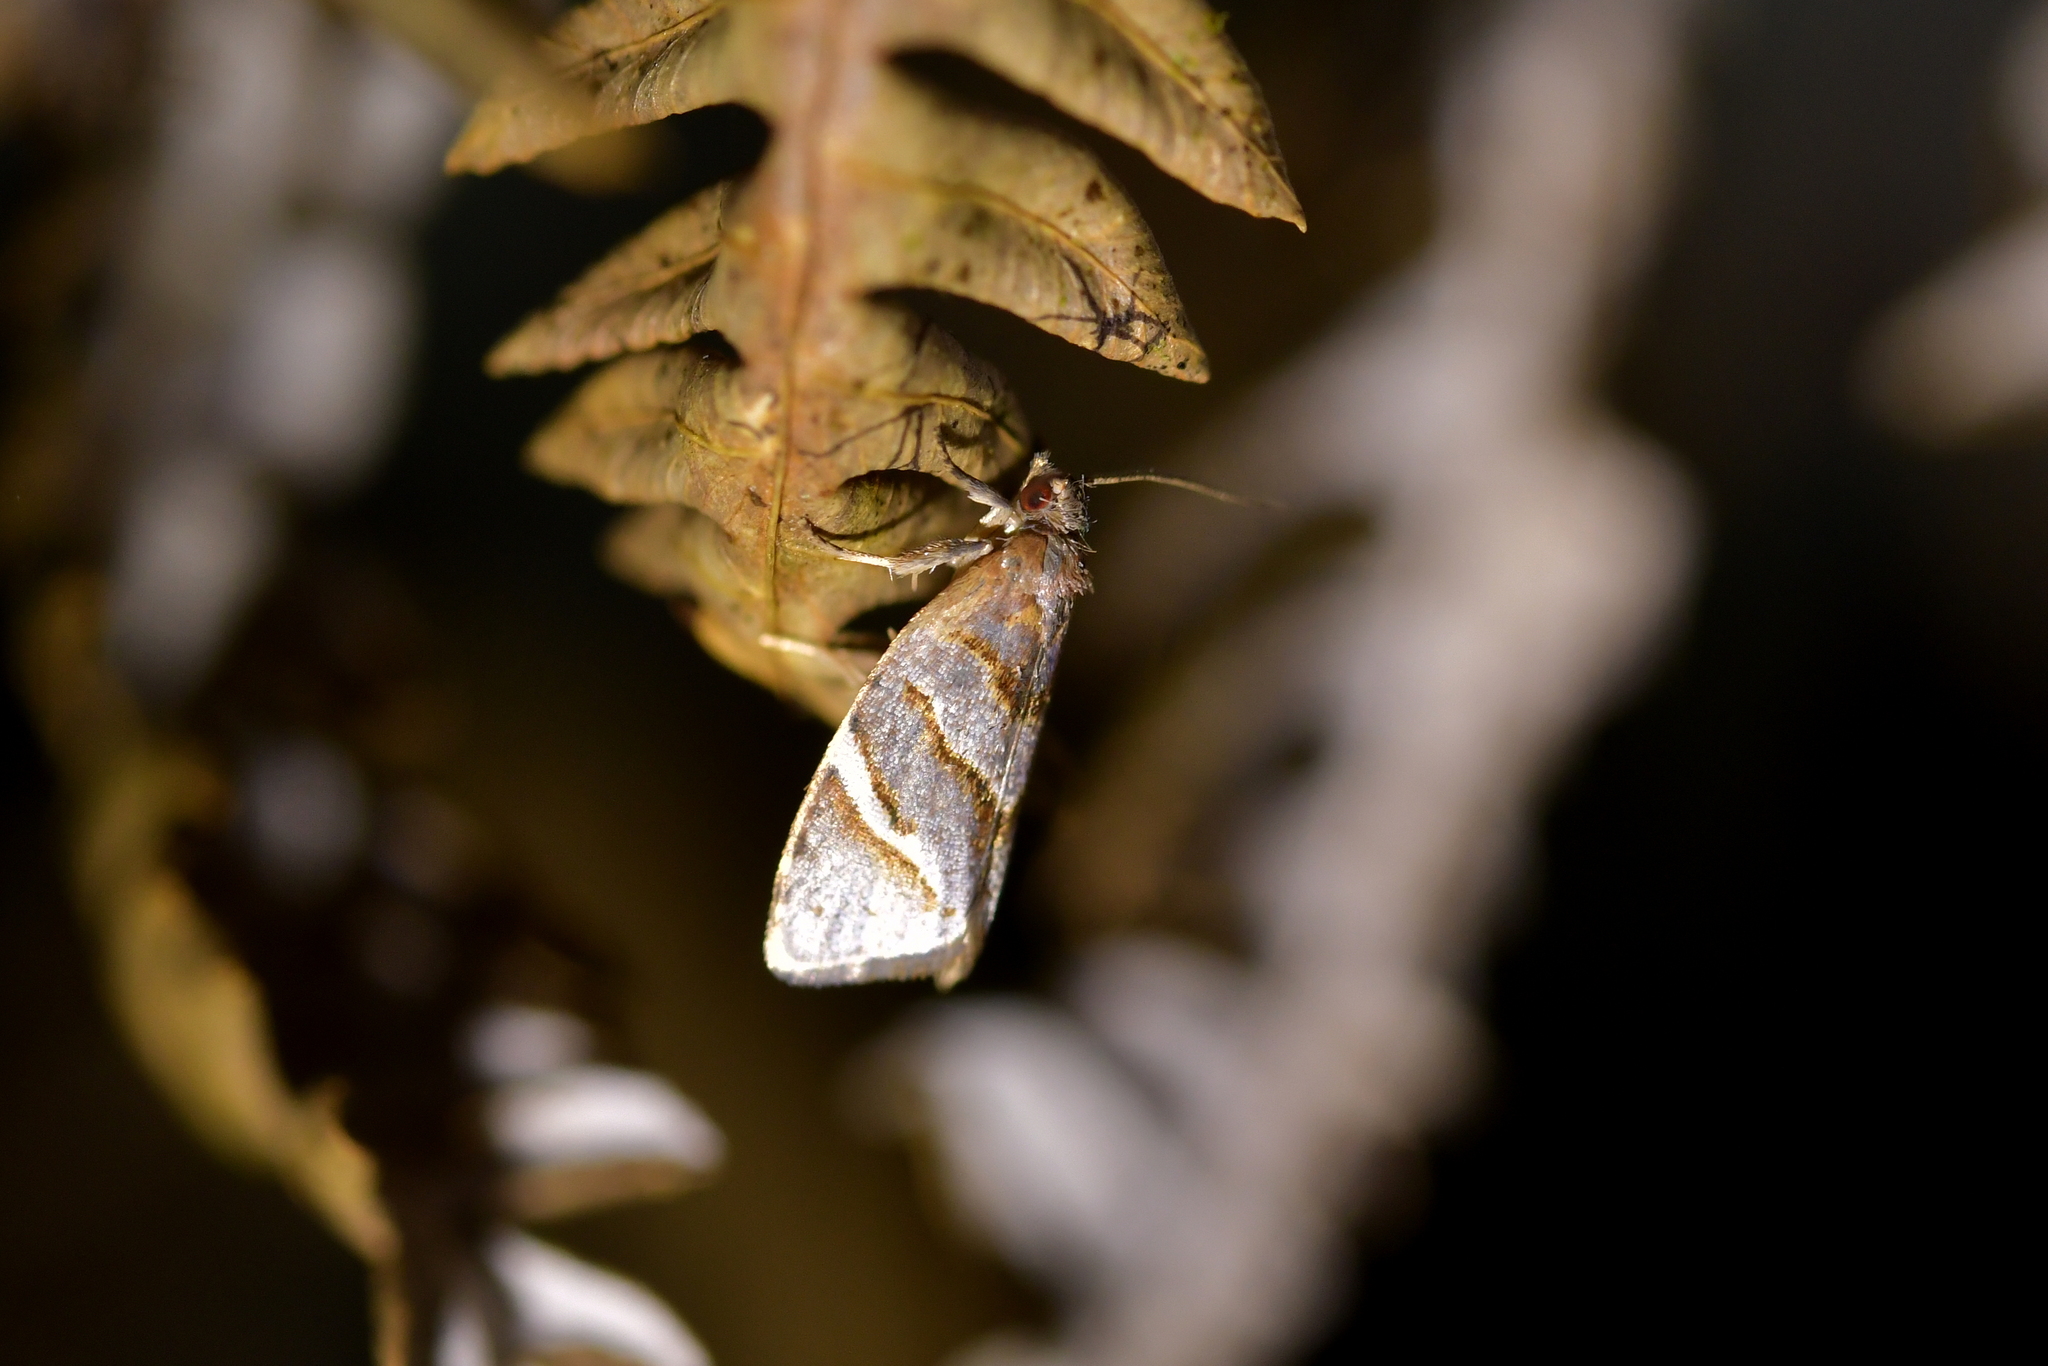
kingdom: Animalia
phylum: Arthropoda
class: Insecta
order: Lepidoptera
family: Tortricidae
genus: Ecclitica
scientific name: Ecclitica torogramma
